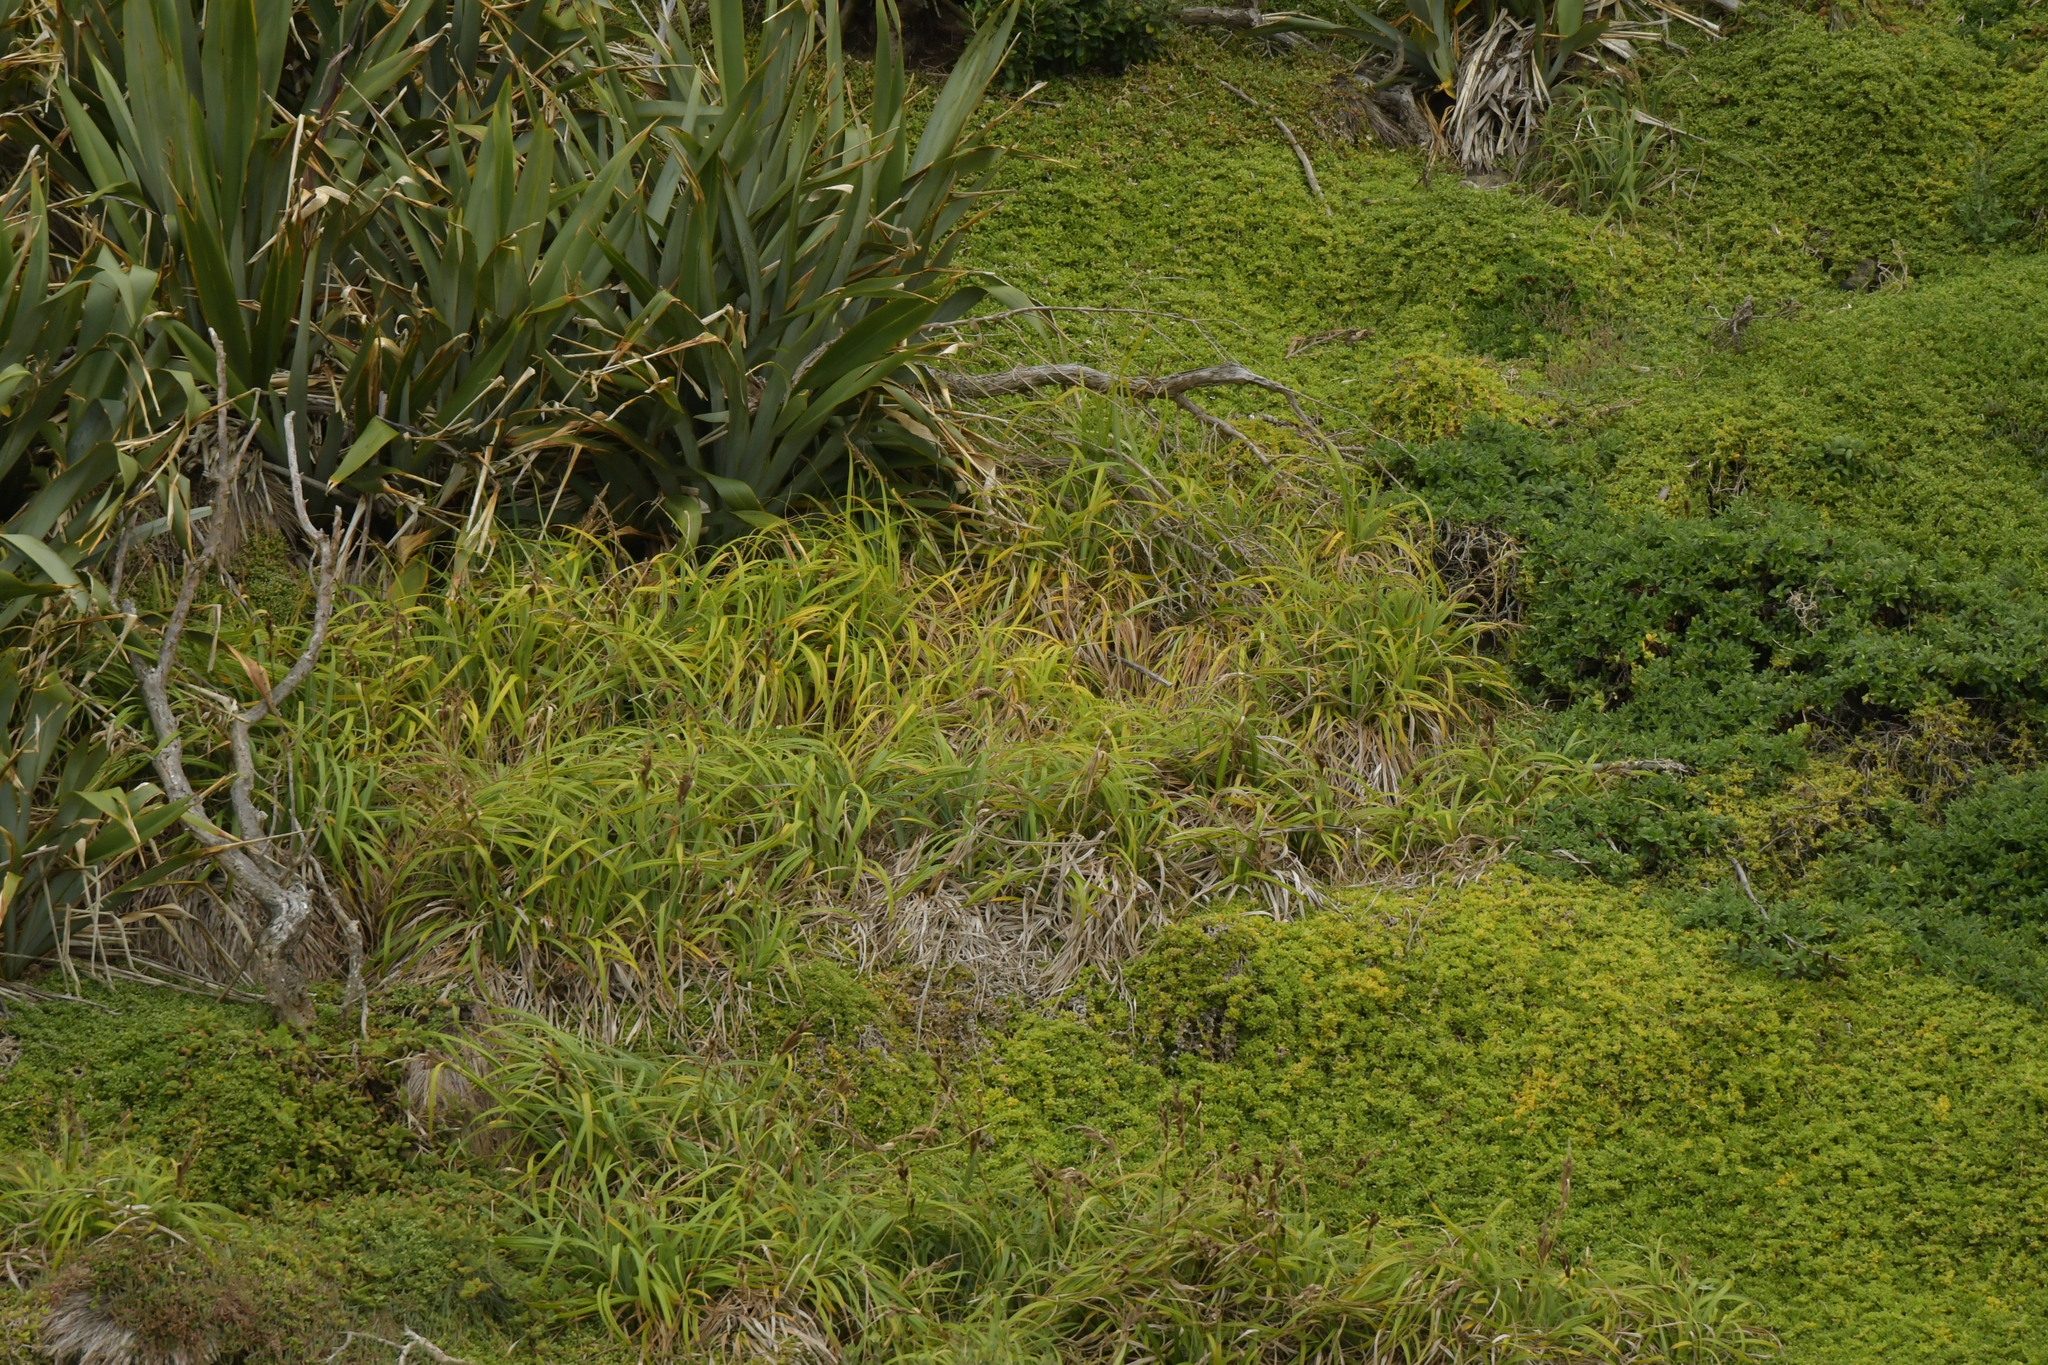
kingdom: Plantae
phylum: Tracheophyta
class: Liliopsida
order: Poales
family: Cyperaceae
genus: Carex
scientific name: Carex trifida
